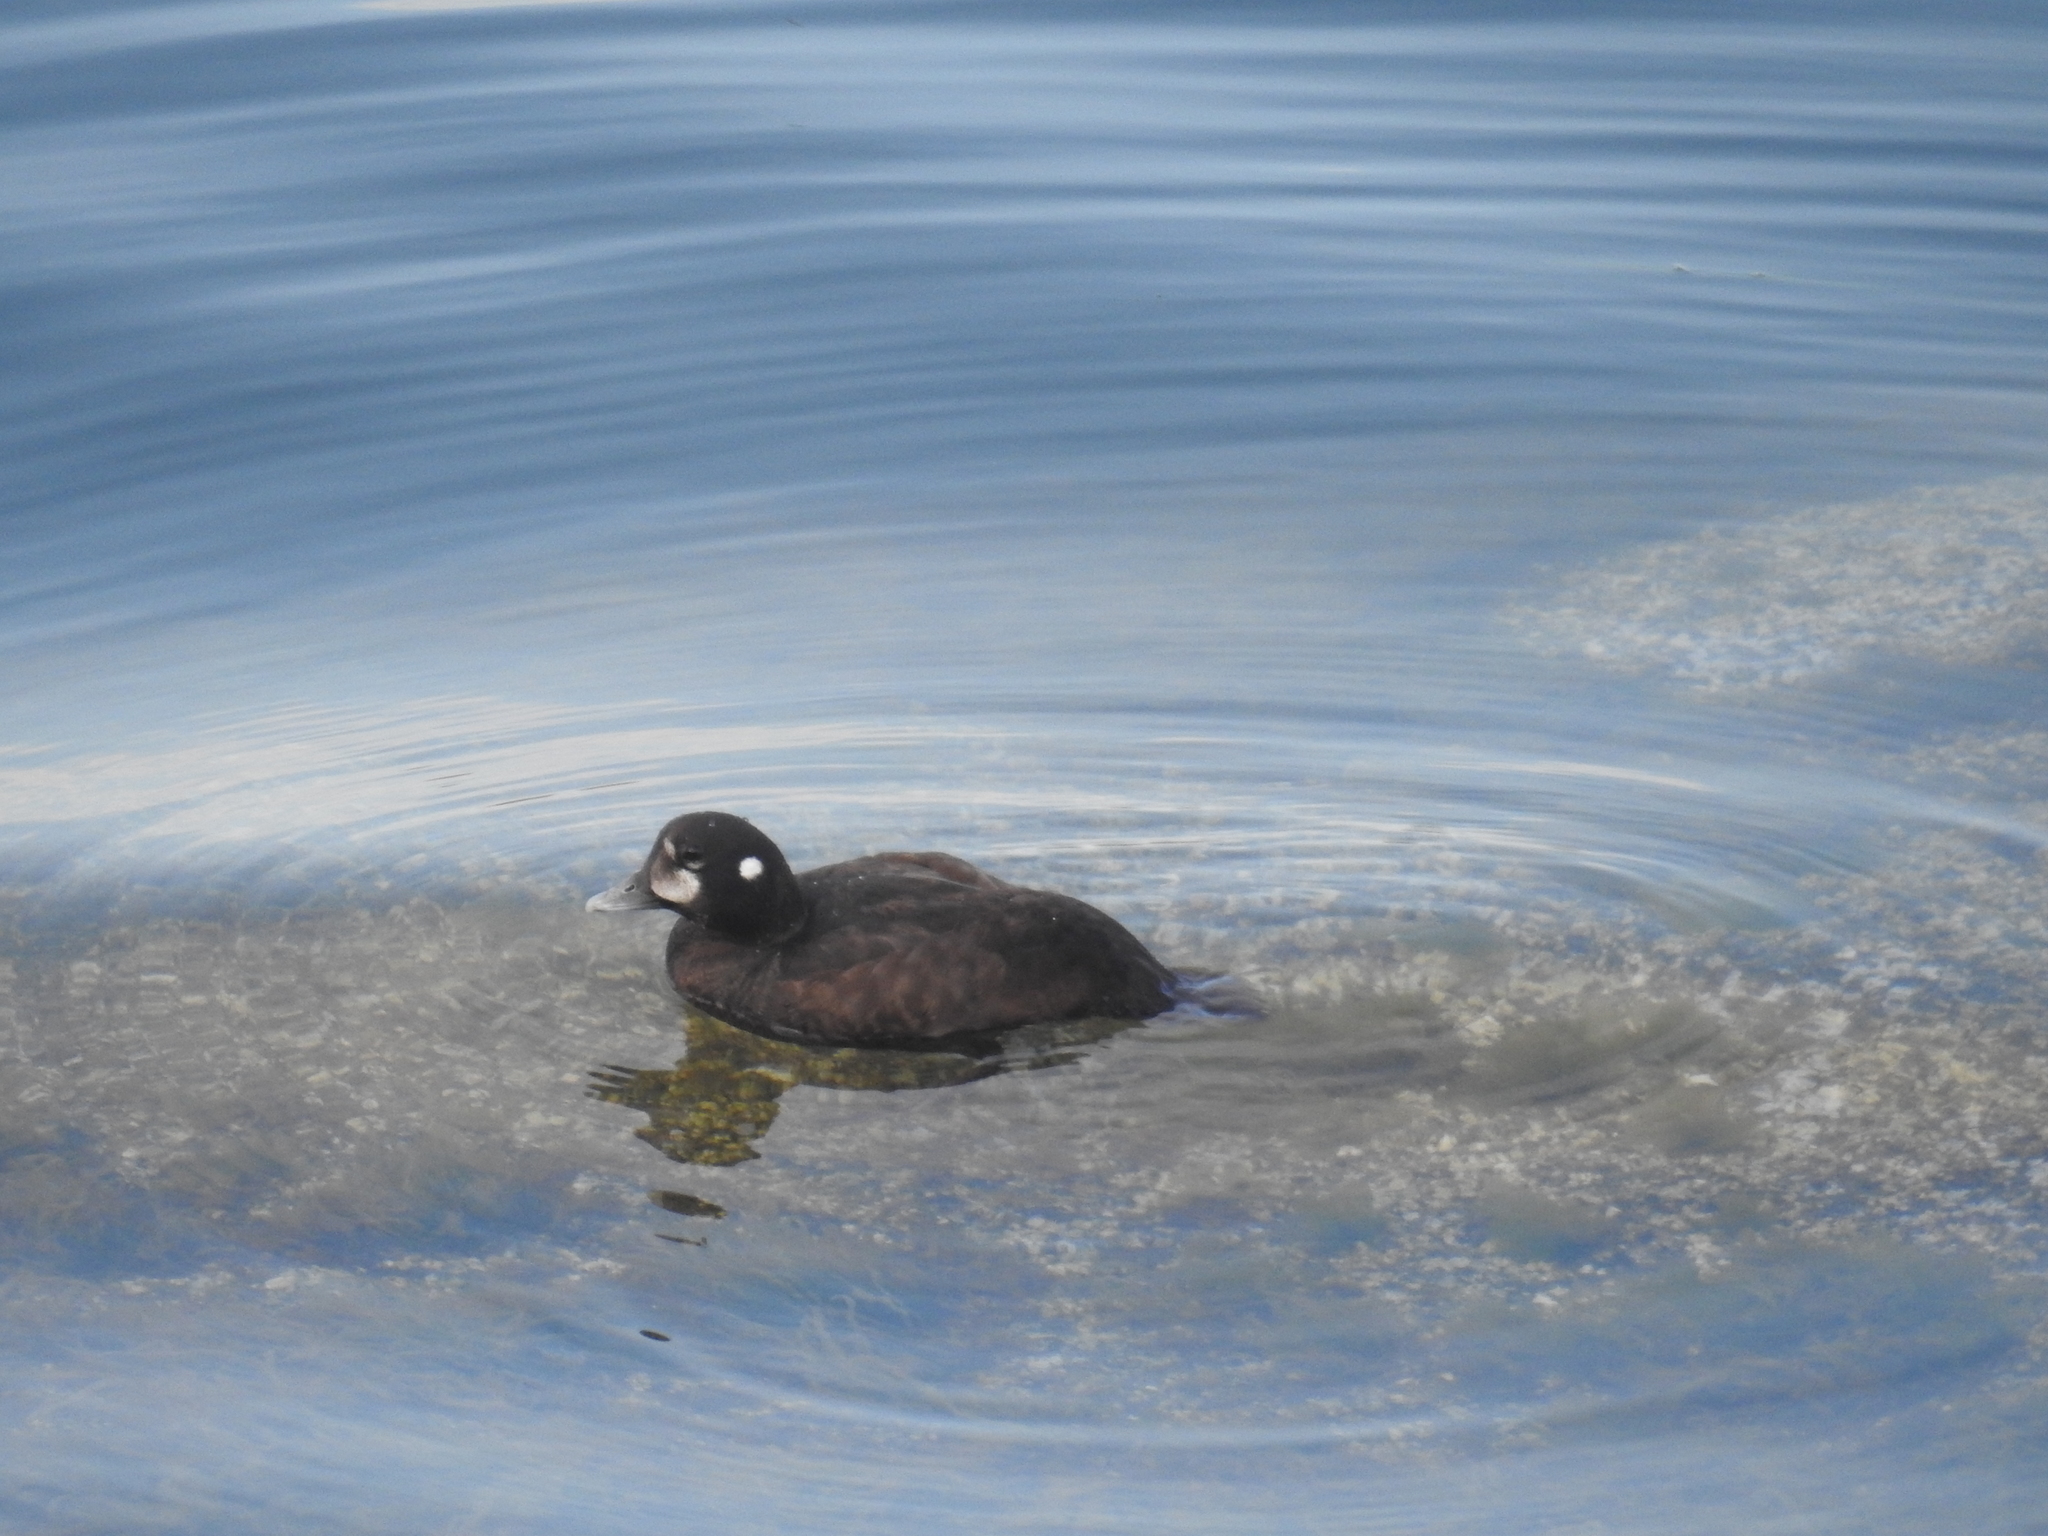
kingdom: Animalia
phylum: Chordata
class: Aves
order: Anseriformes
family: Anatidae
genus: Histrionicus
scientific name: Histrionicus histrionicus
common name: Harlequin duck
